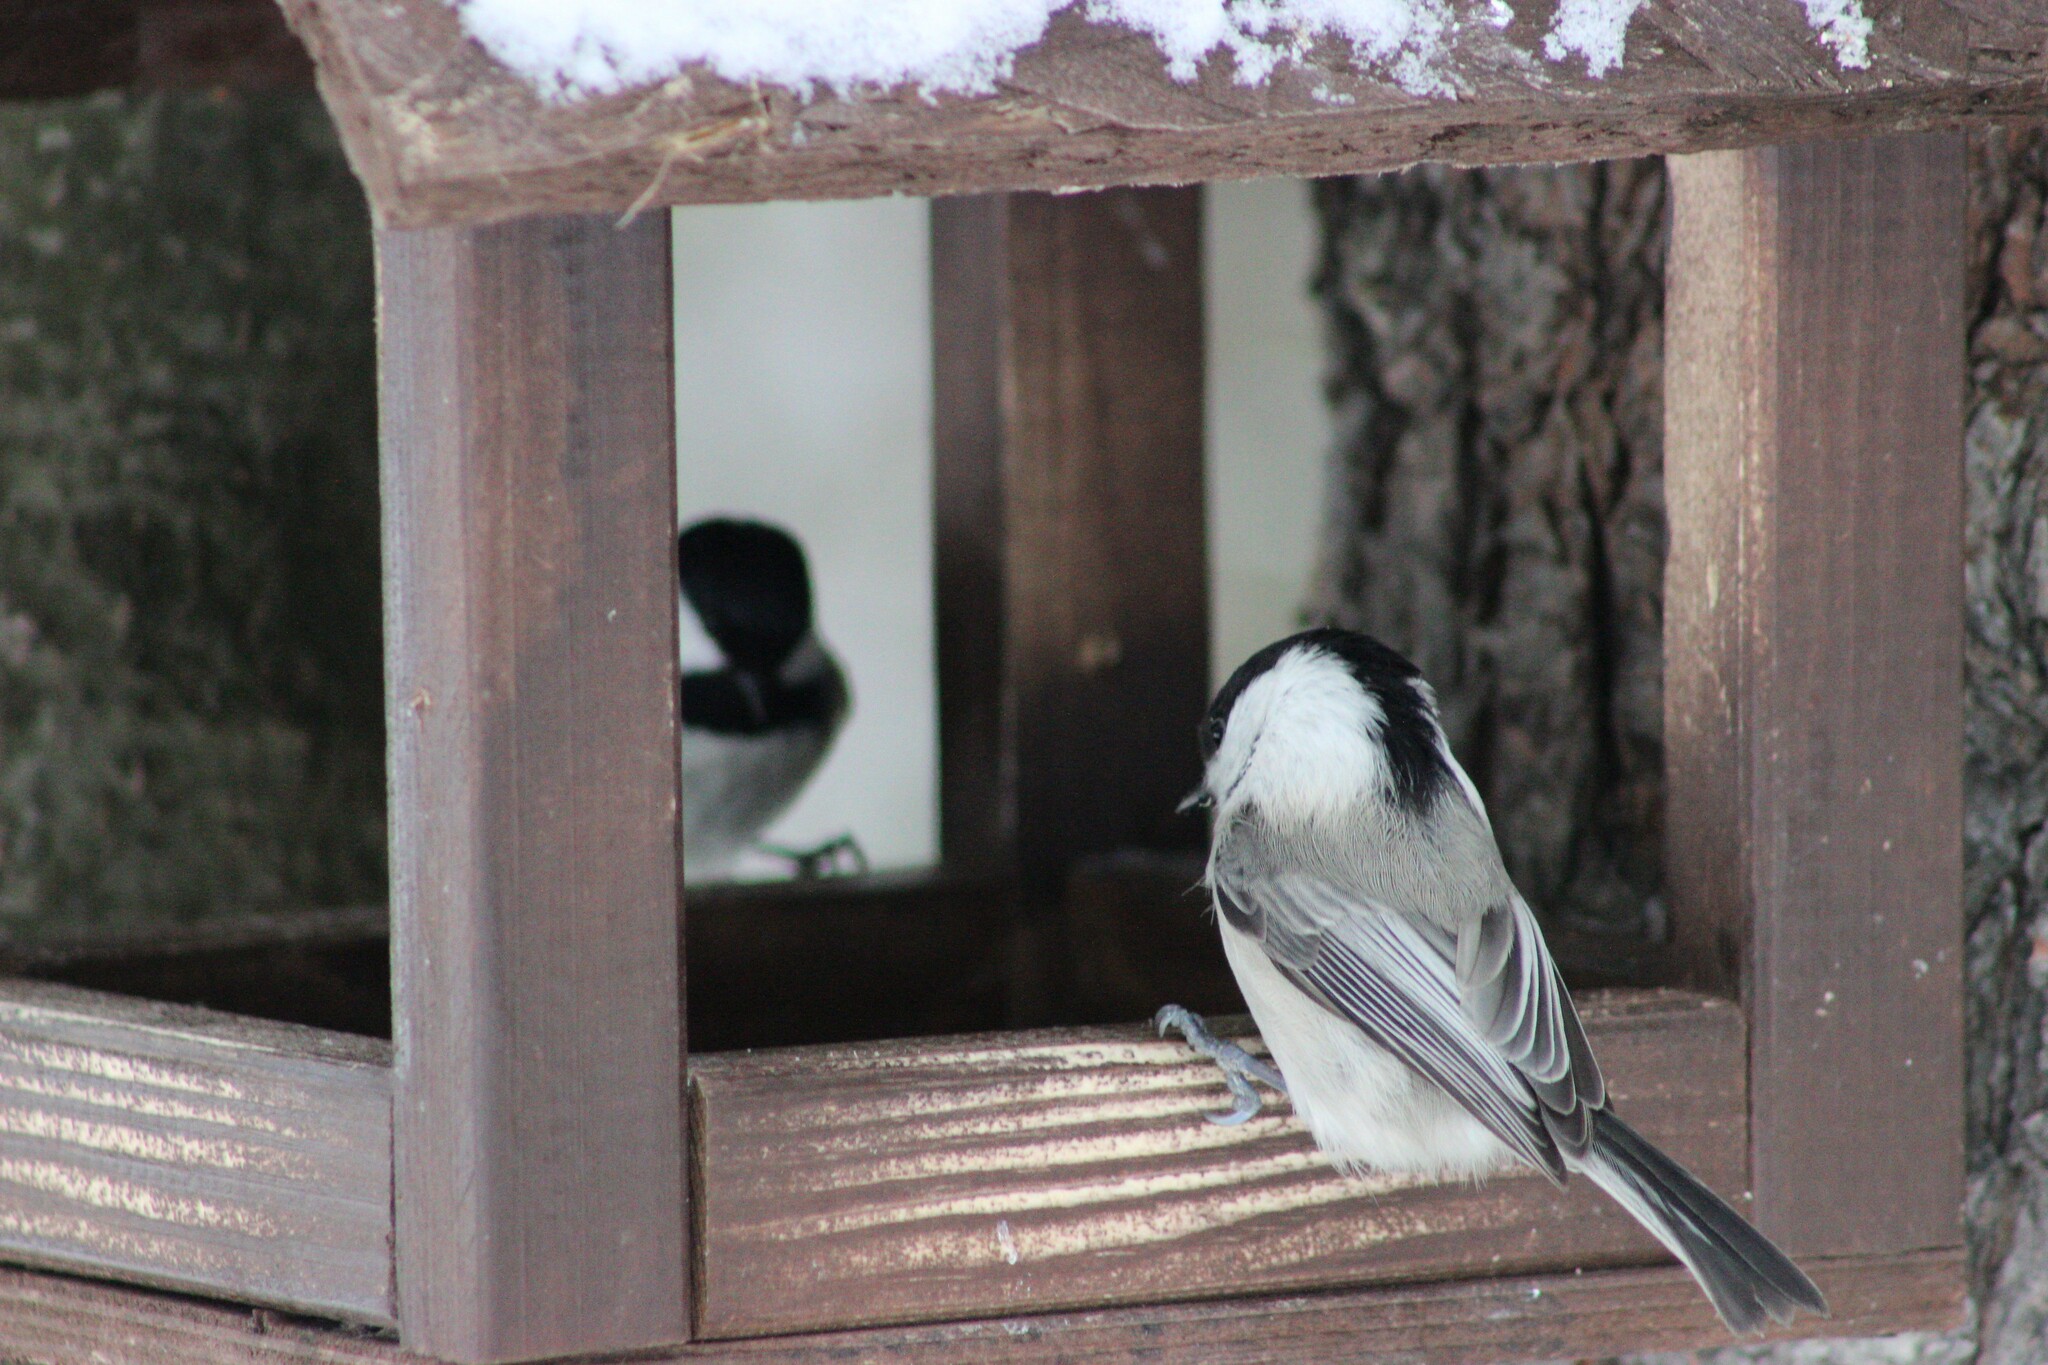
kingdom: Animalia
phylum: Chordata
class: Aves
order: Passeriformes
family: Paridae
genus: Poecile
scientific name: Poecile montanus
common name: Willow tit
